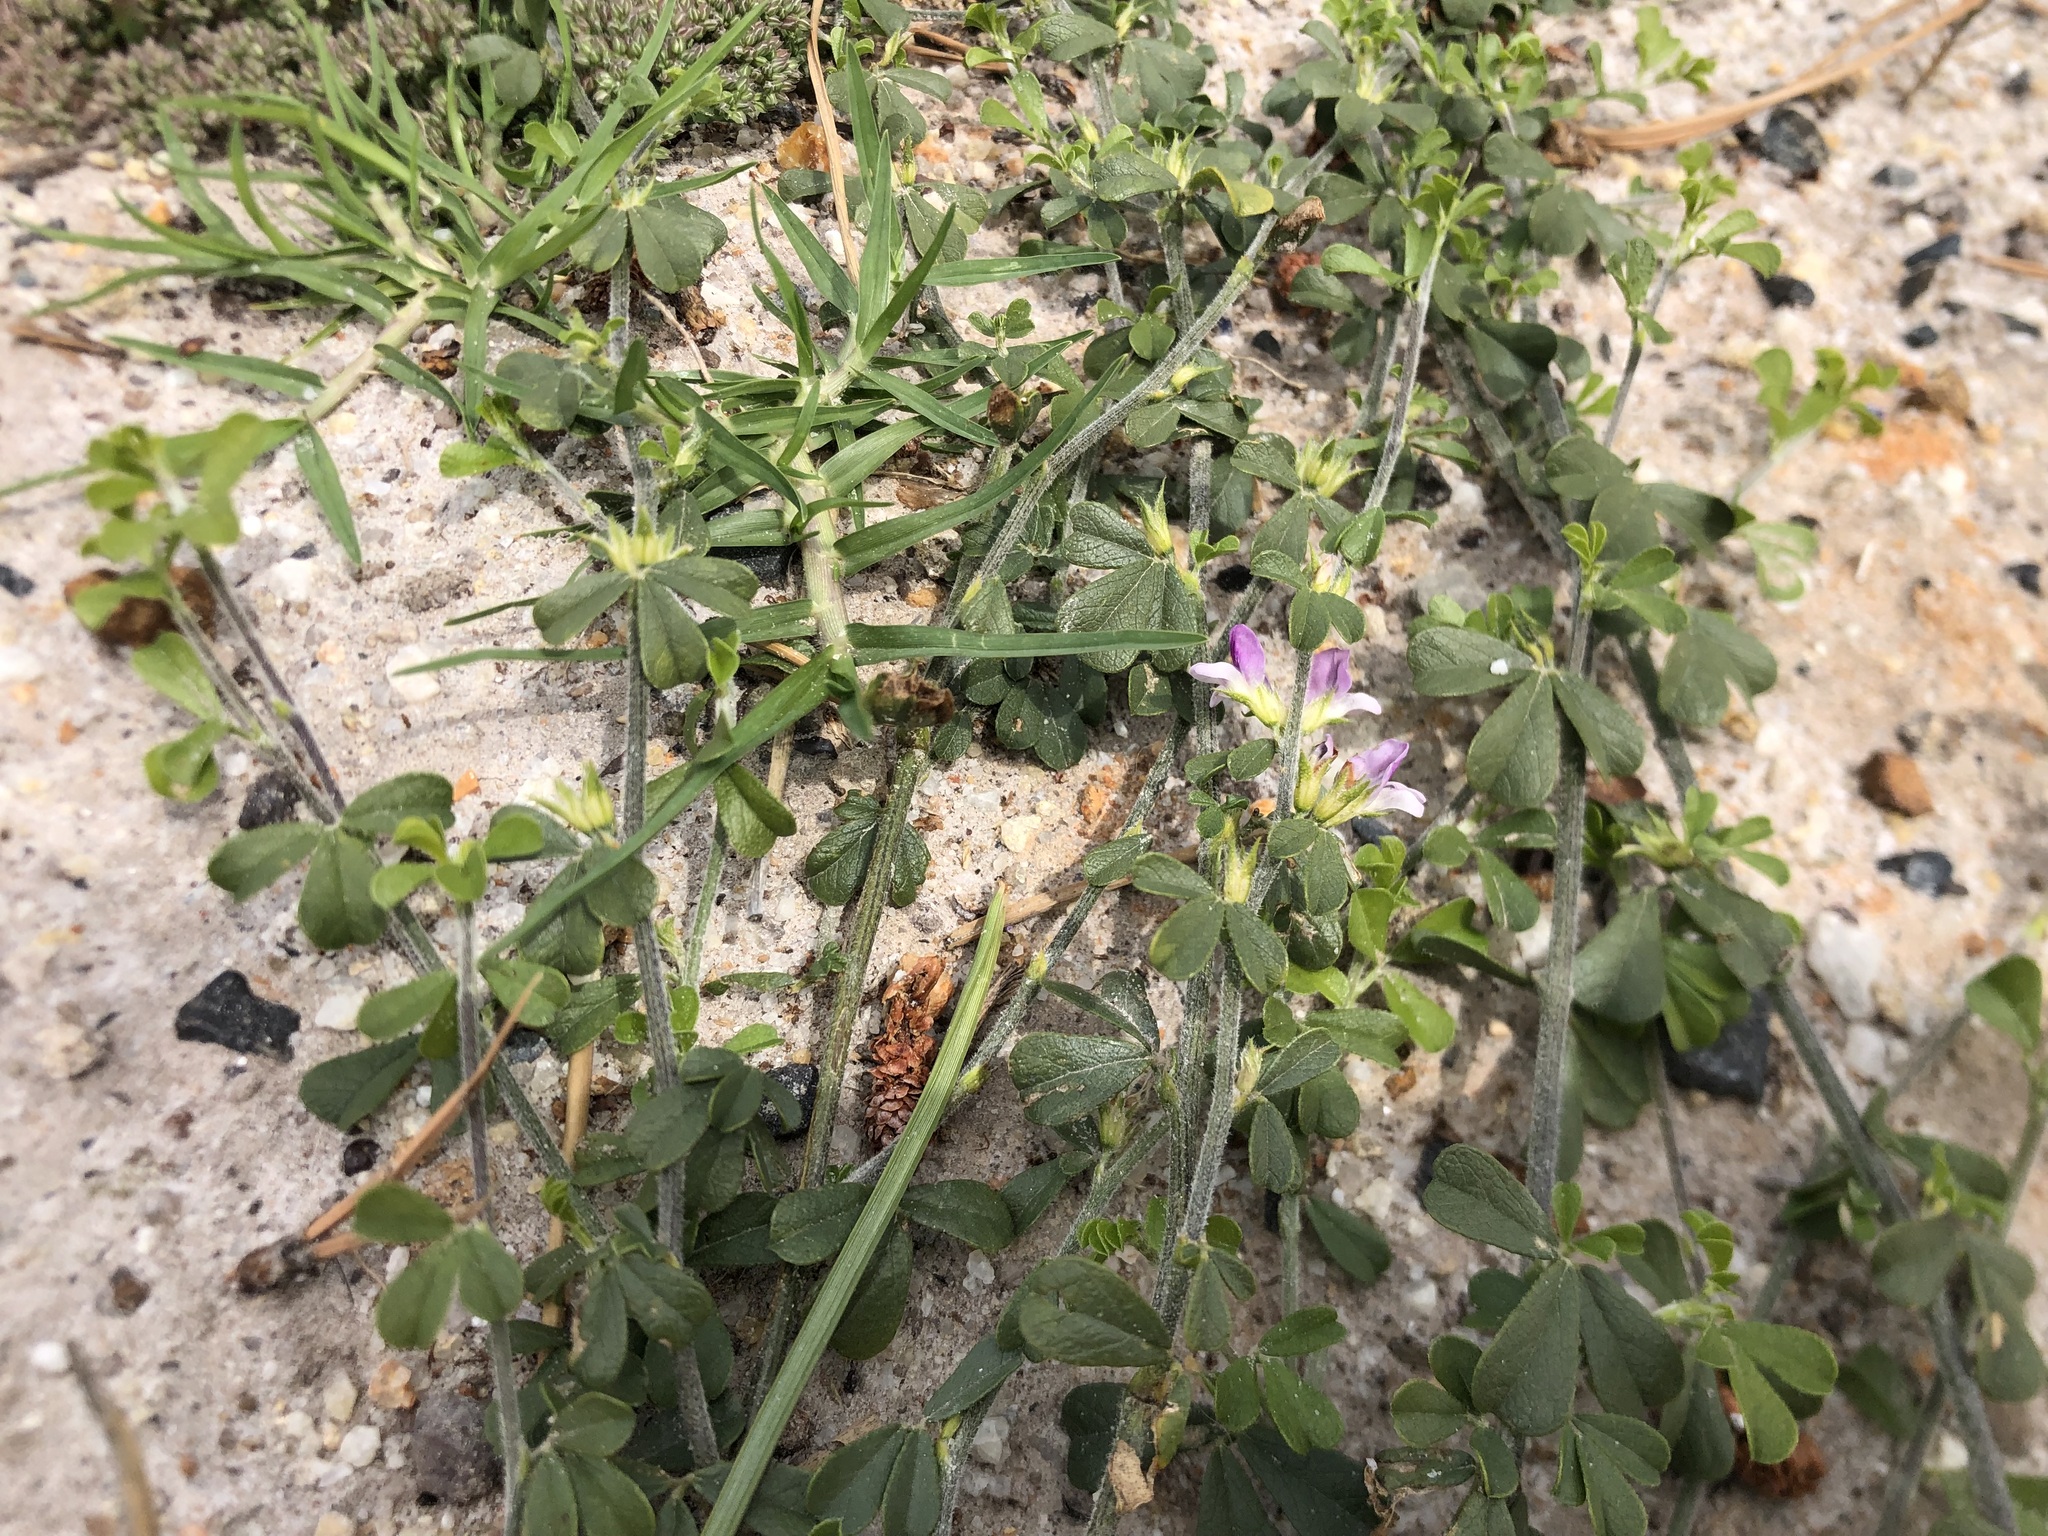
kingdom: Plantae
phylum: Tracheophyta
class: Magnoliopsida
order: Fabales
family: Fabaceae
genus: Psoralea
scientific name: Psoralea
